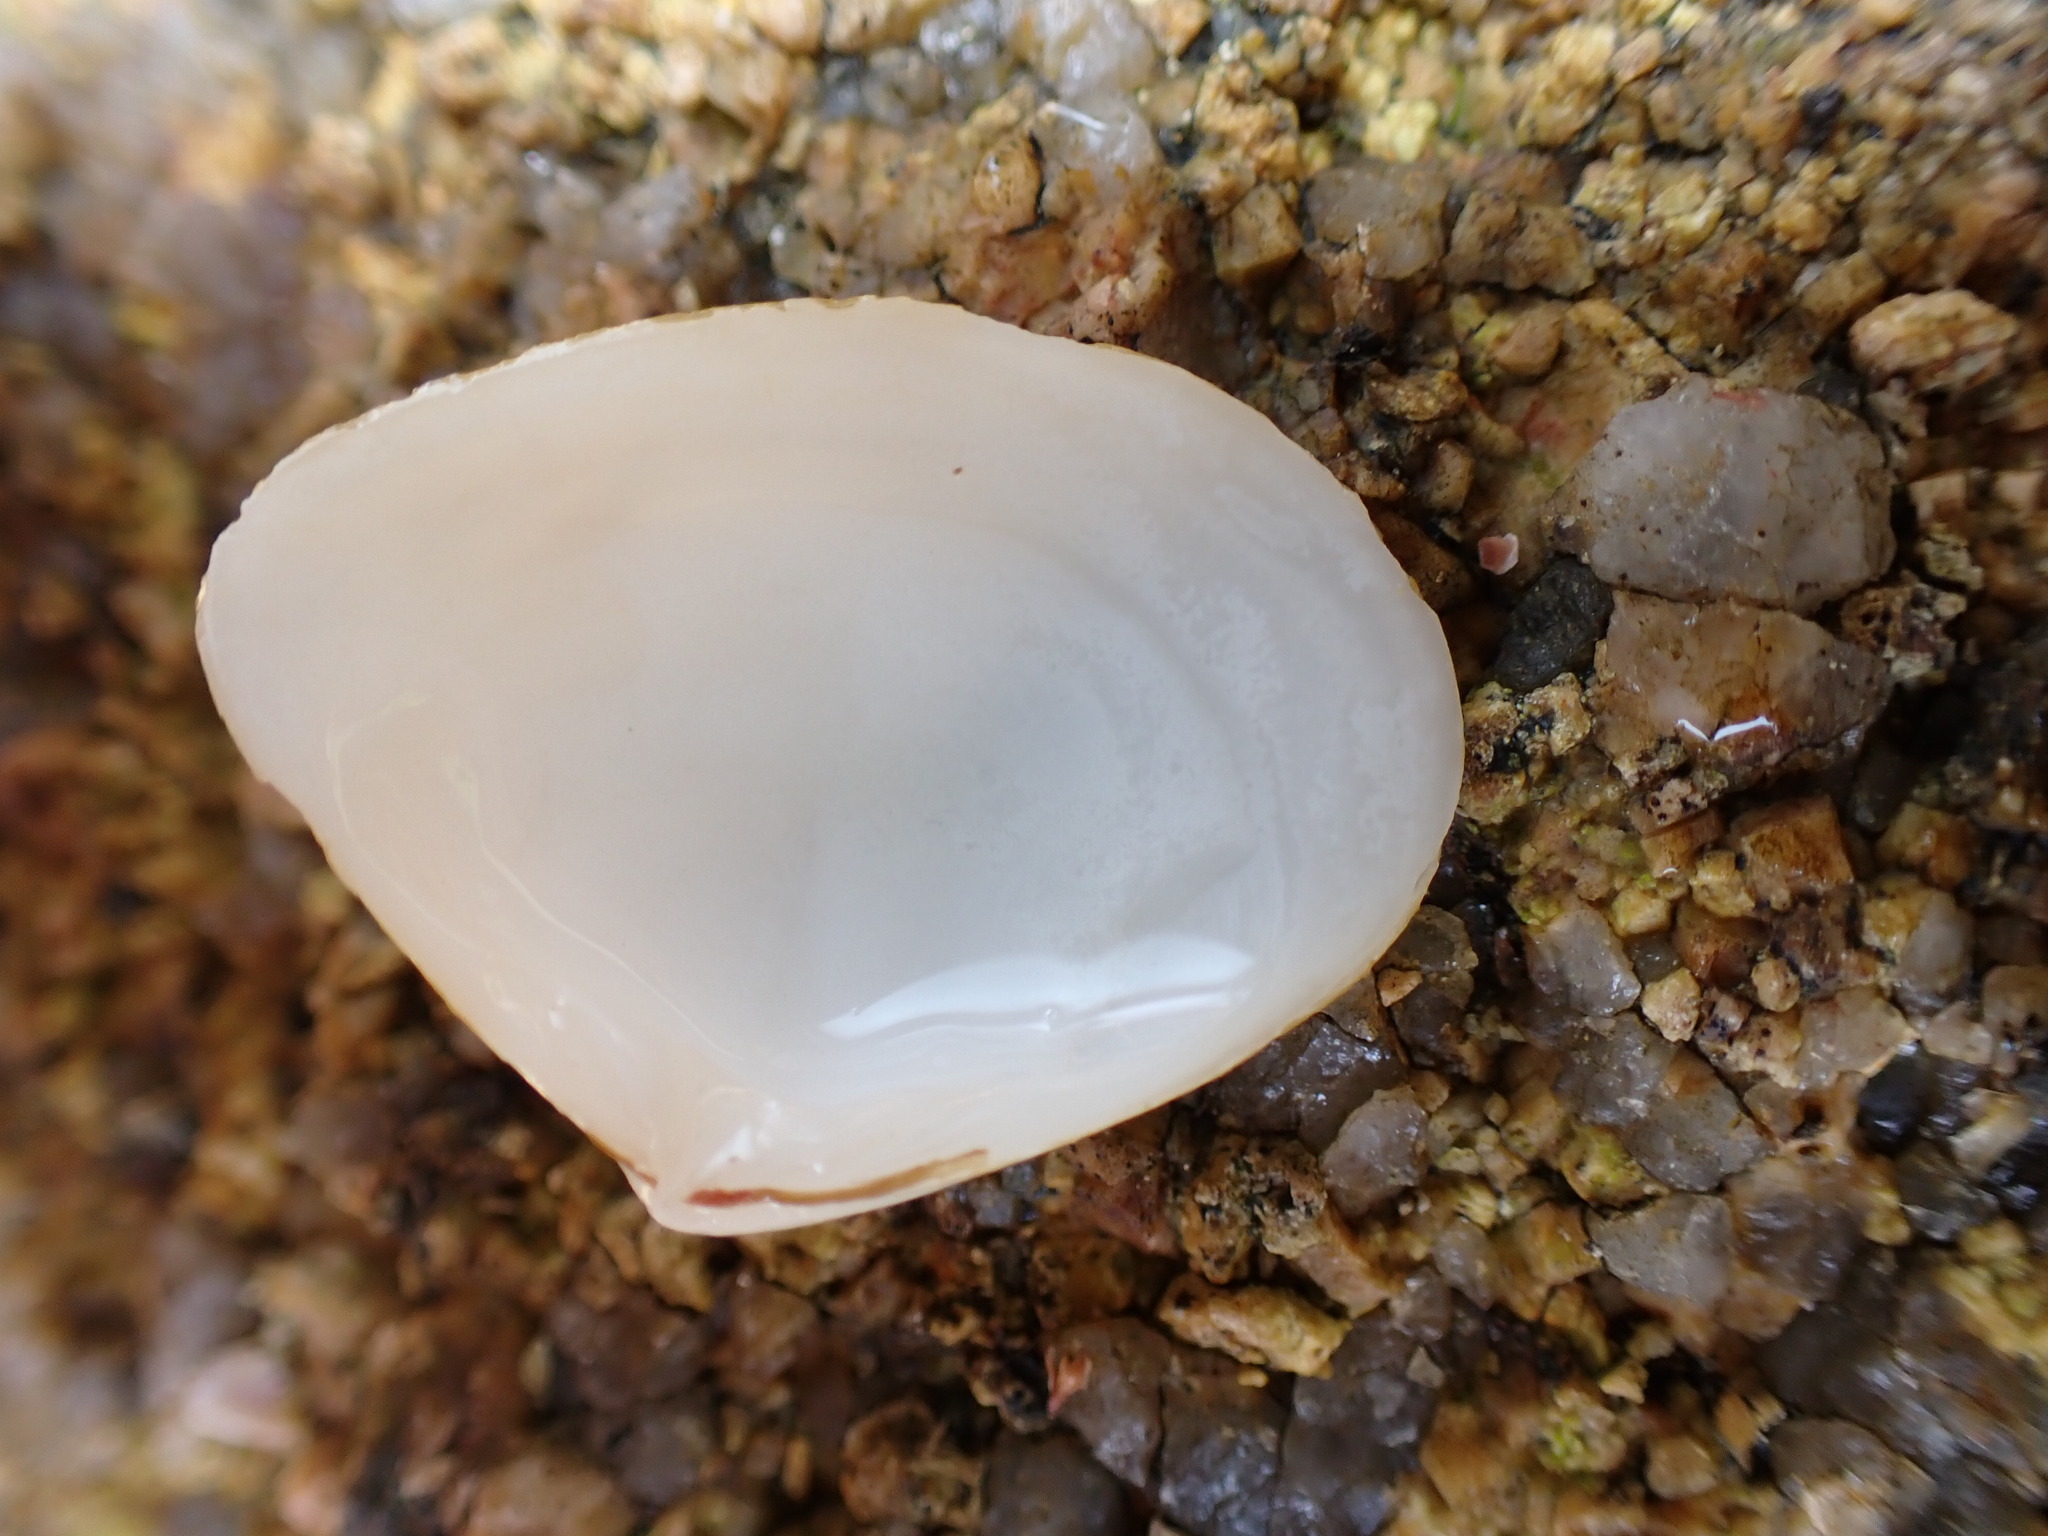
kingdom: Animalia
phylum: Mollusca
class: Bivalvia
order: Venerida
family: Mesodesmatidae
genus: Atactodea
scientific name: Atactodea striata
